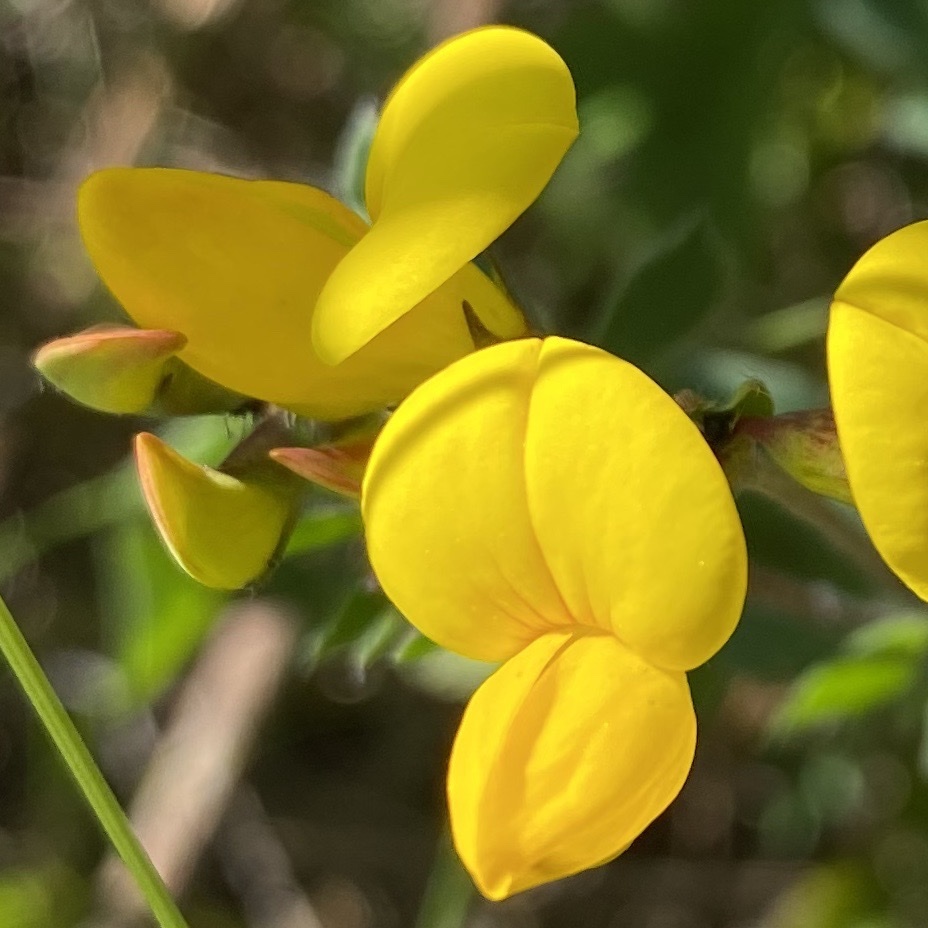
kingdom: Plantae
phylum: Tracheophyta
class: Magnoliopsida
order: Fabales
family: Fabaceae
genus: Lotus
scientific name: Lotus corniculatus
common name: Common bird's-foot-trefoil
